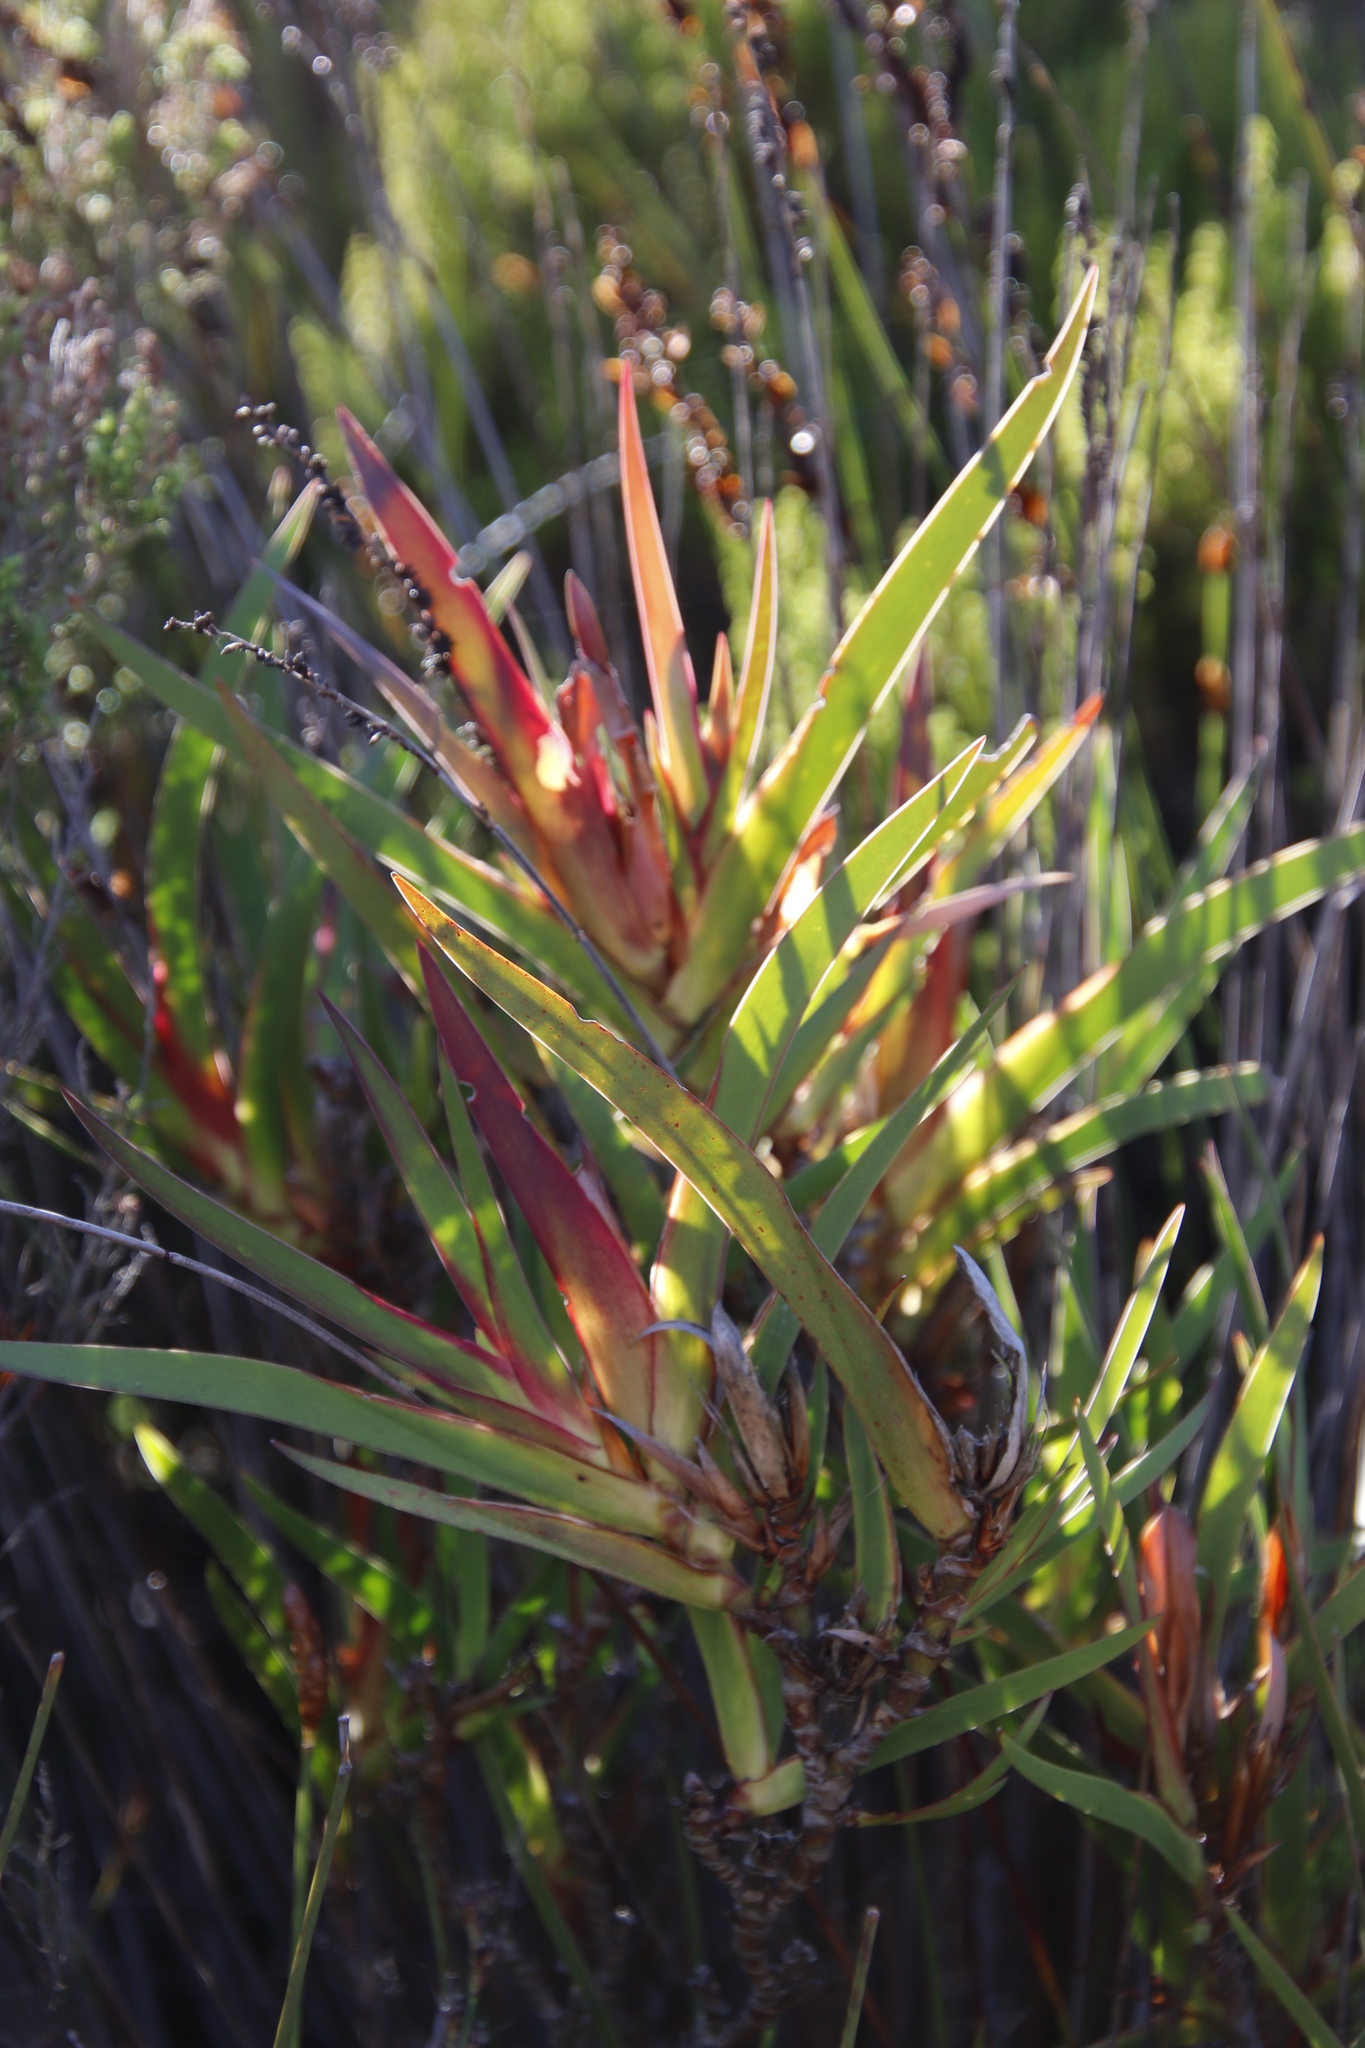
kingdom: Plantae
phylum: Tracheophyta
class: Liliopsida
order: Asparagales
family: Iridaceae
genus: Klattia
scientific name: Klattia stokoei
